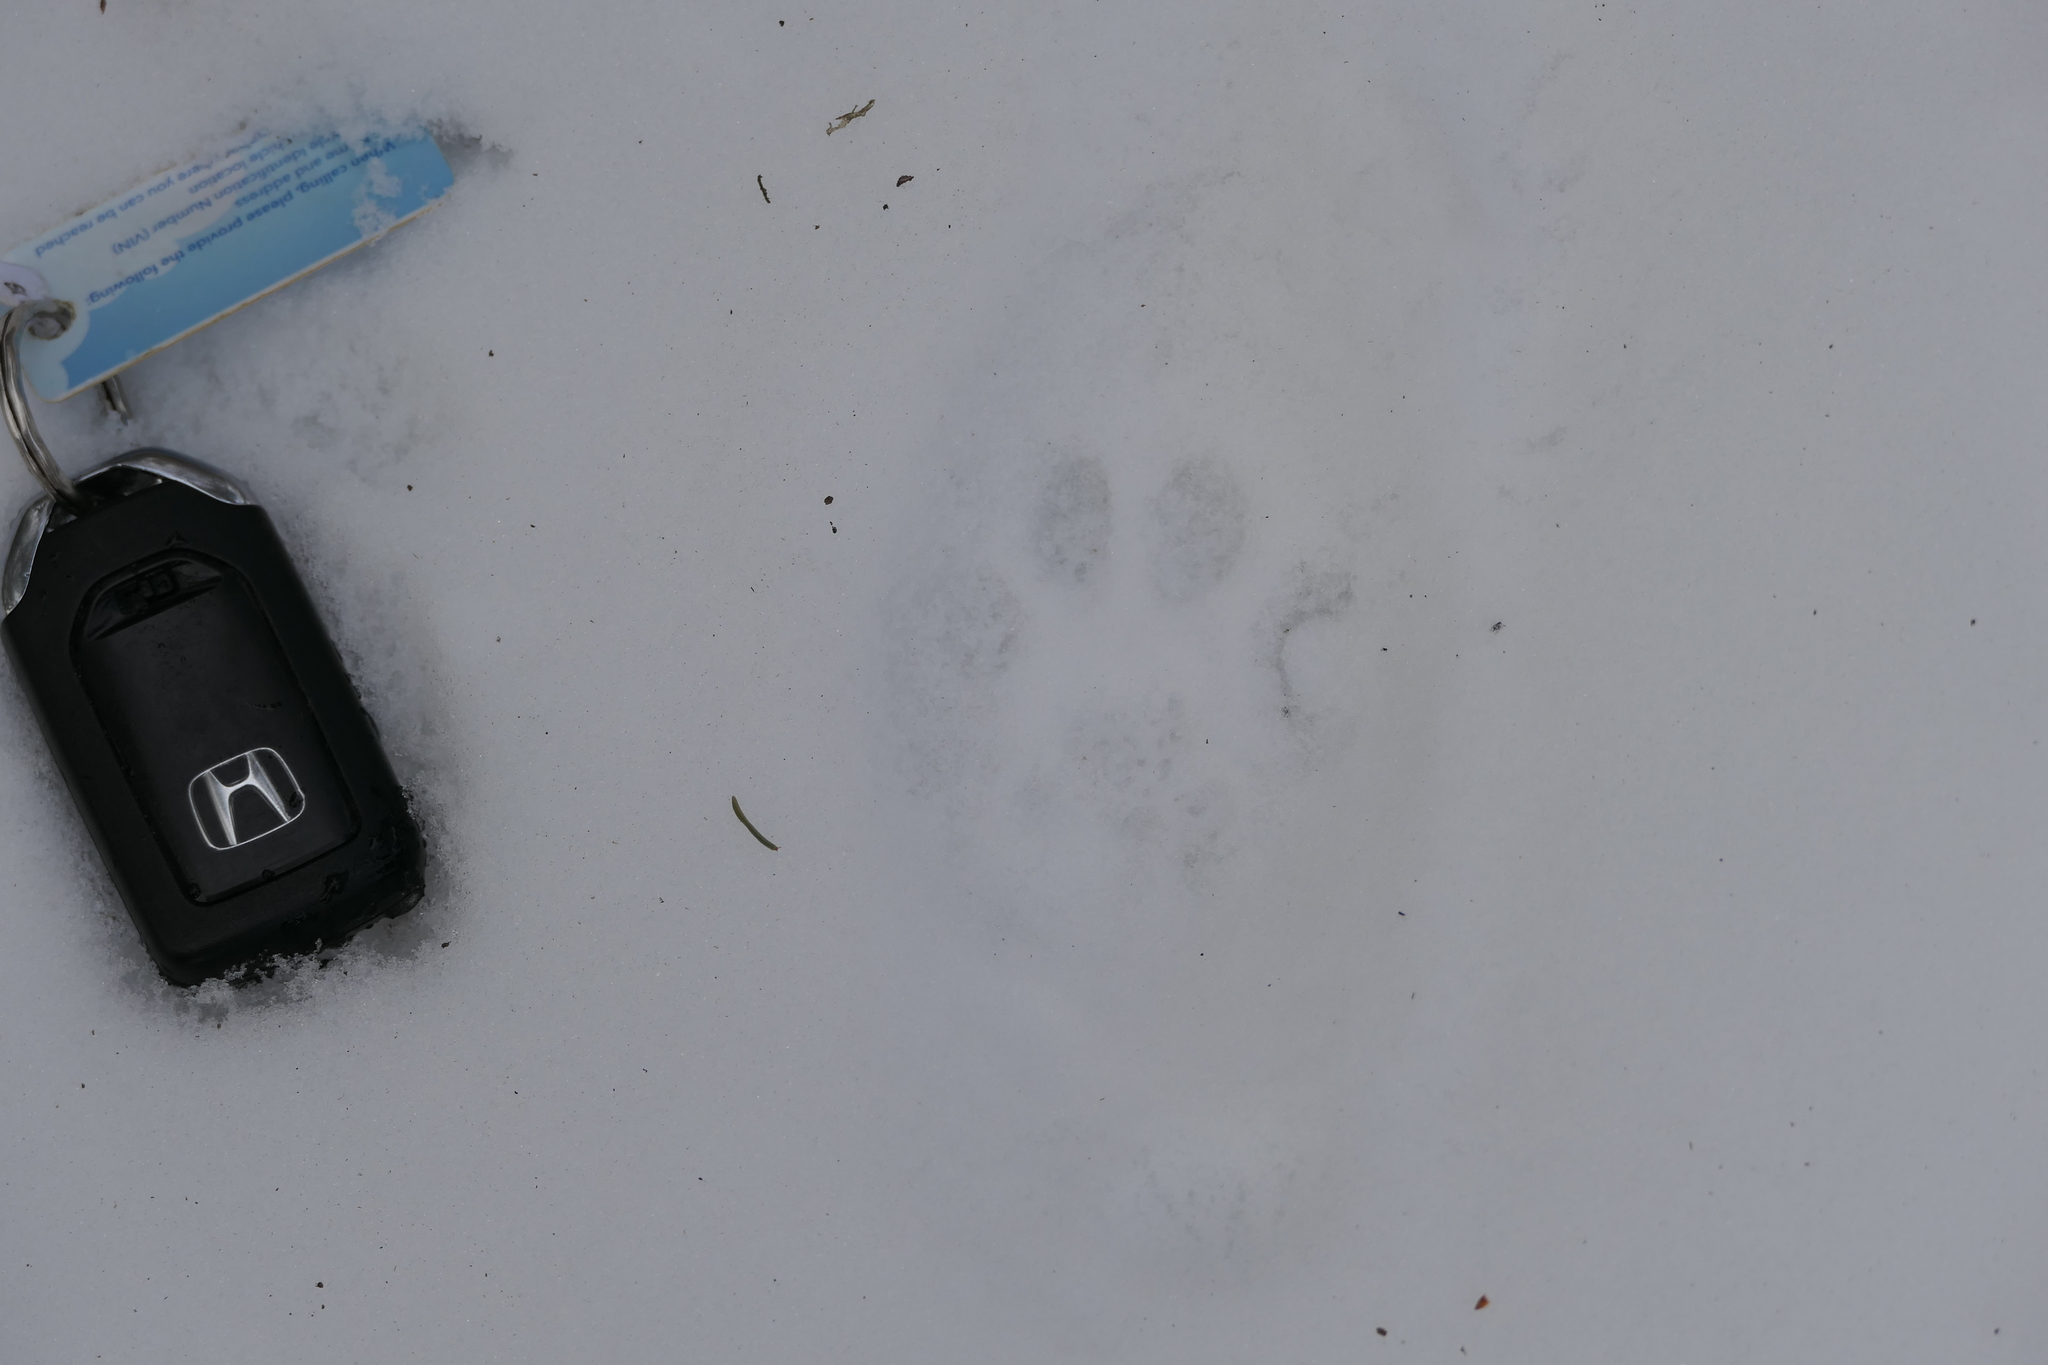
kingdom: Animalia
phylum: Chordata
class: Mammalia
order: Carnivora
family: Felidae
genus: Lynx
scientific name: Lynx rufus
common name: Bobcat
